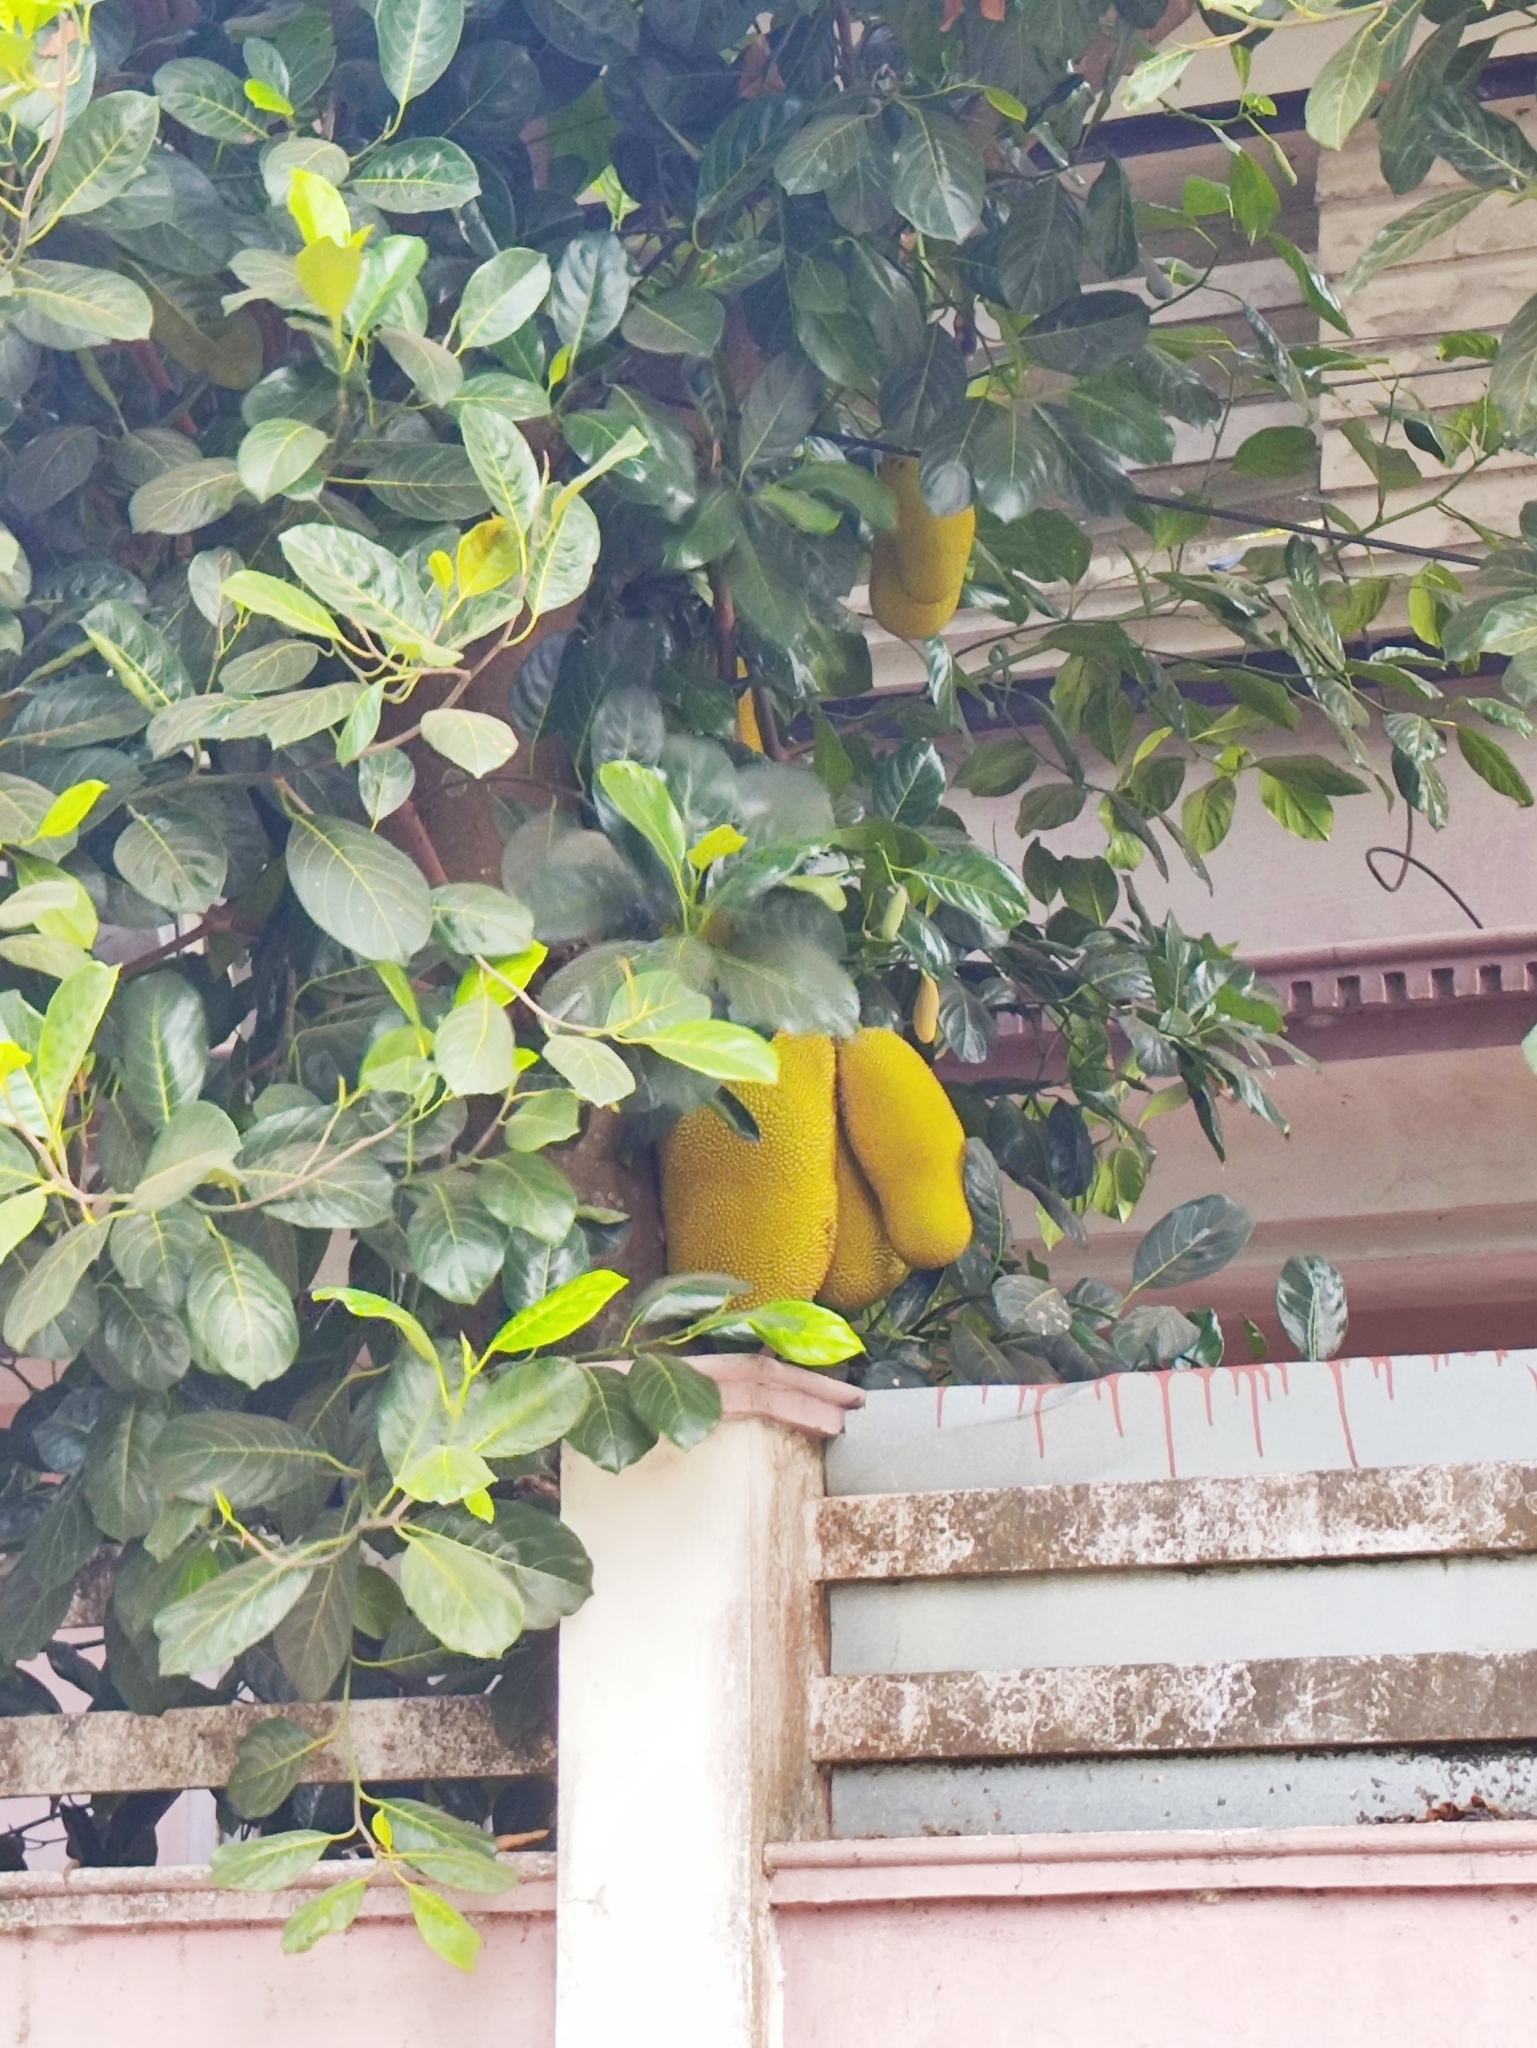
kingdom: Plantae
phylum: Tracheophyta
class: Magnoliopsida
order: Rosales
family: Moraceae
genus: Artocarpus
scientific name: Artocarpus heterophyllus
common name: Jackfruit
